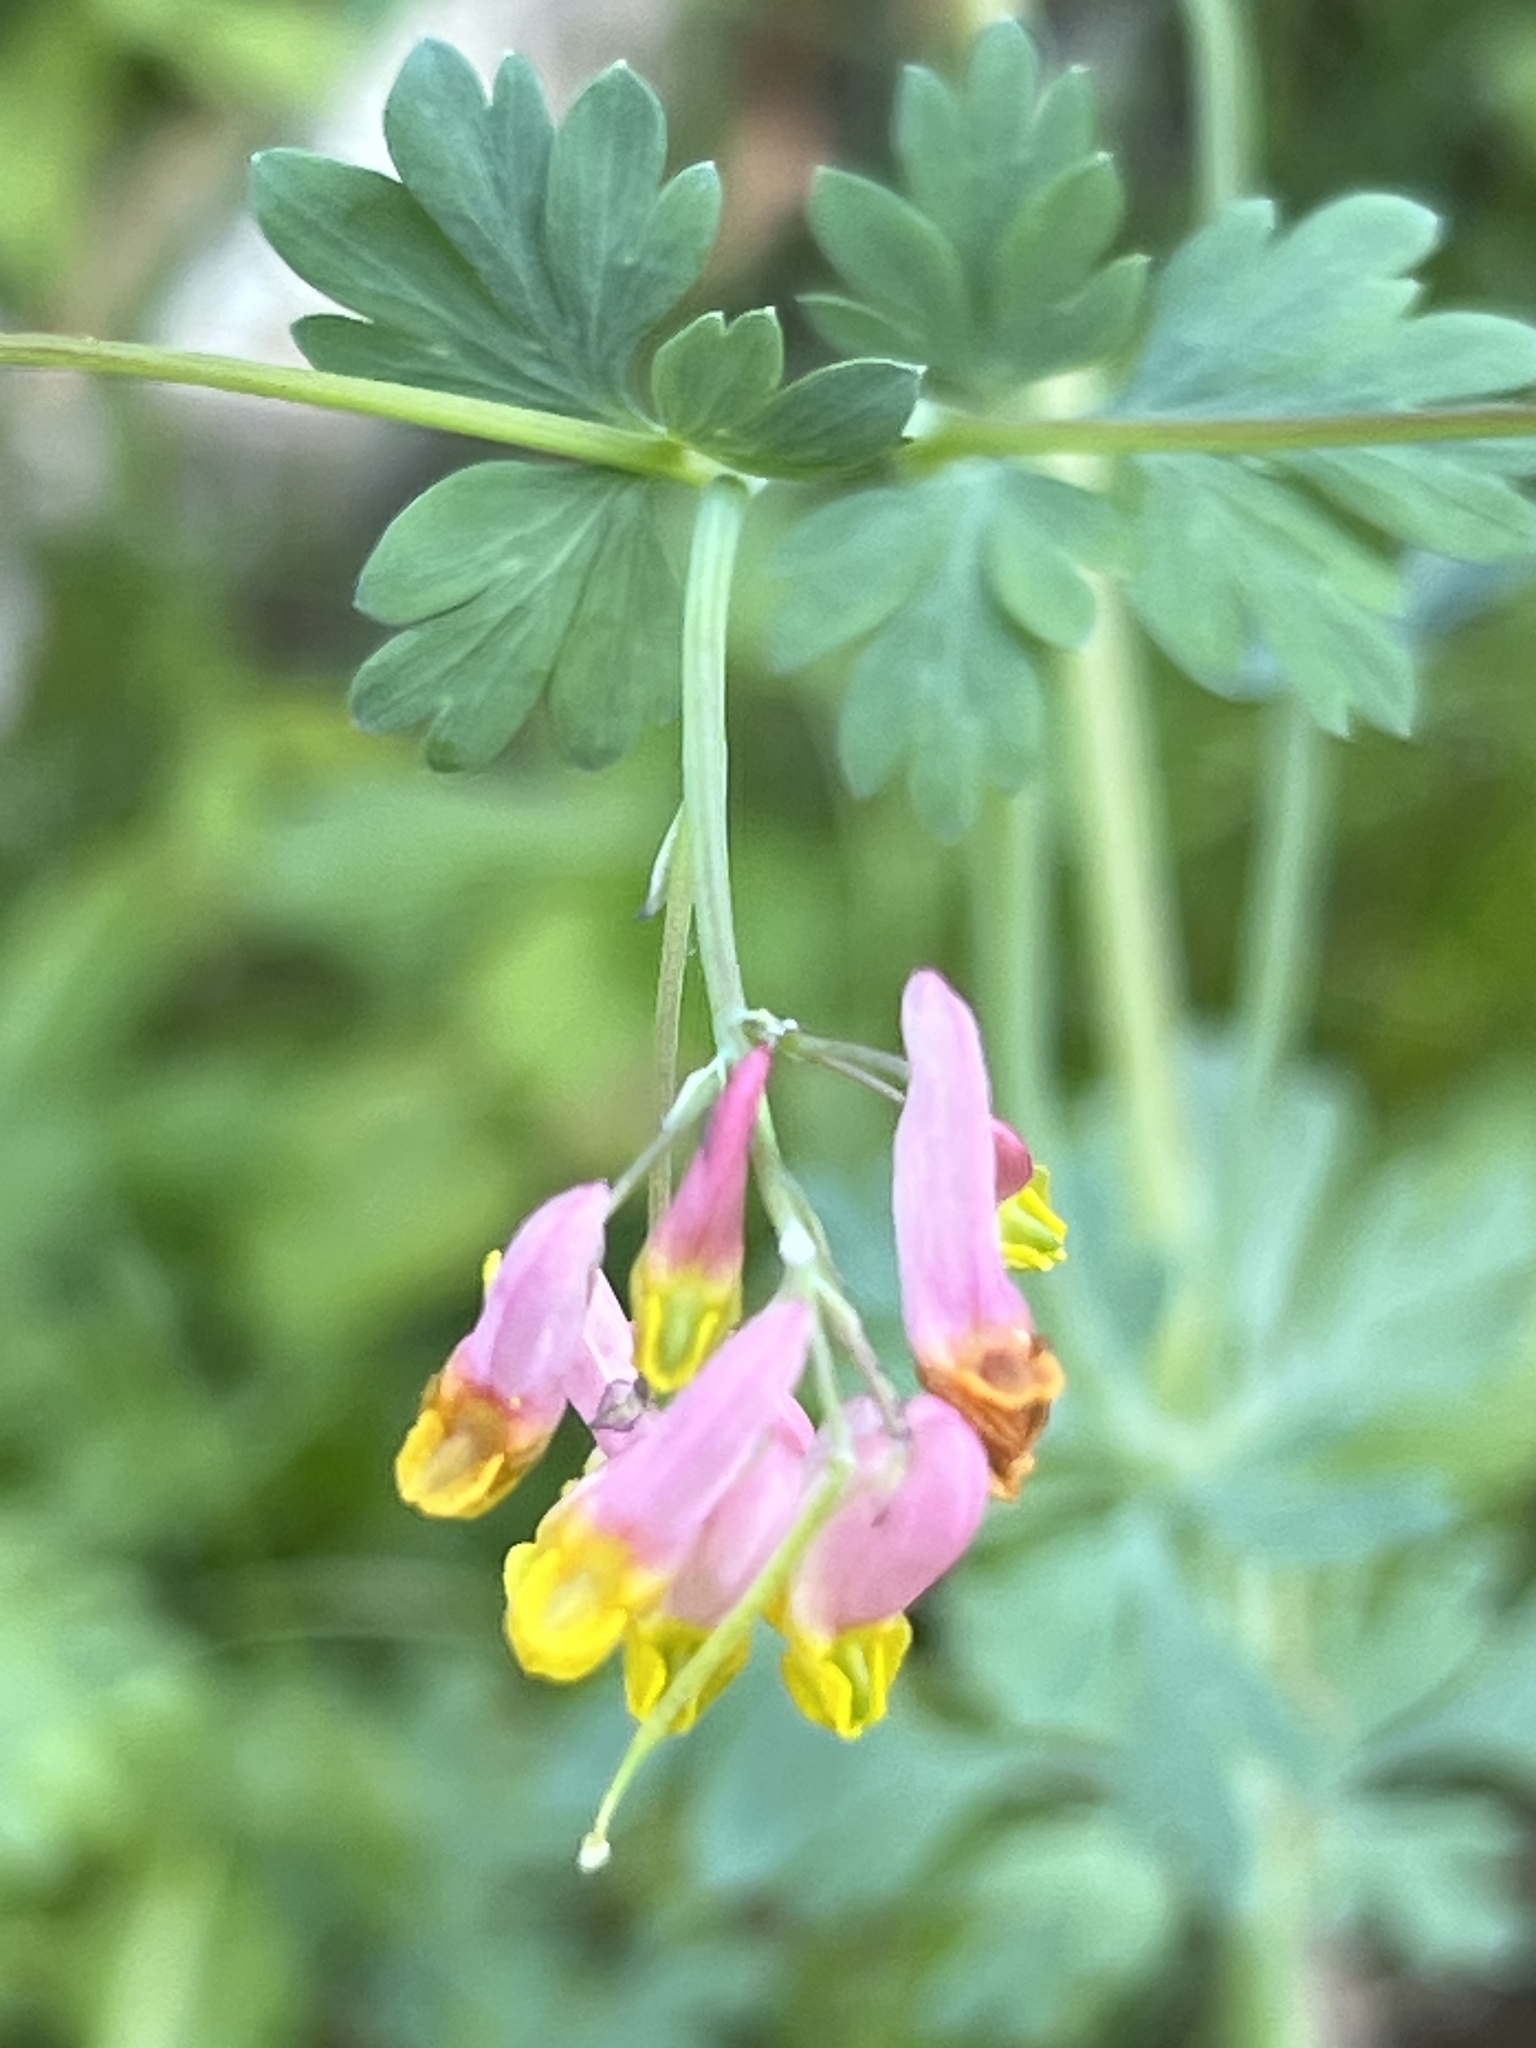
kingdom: Plantae
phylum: Tracheophyta
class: Magnoliopsida
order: Ranunculales
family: Papaveraceae
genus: Capnoides
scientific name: Capnoides sempervirens
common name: Rock harlequin
